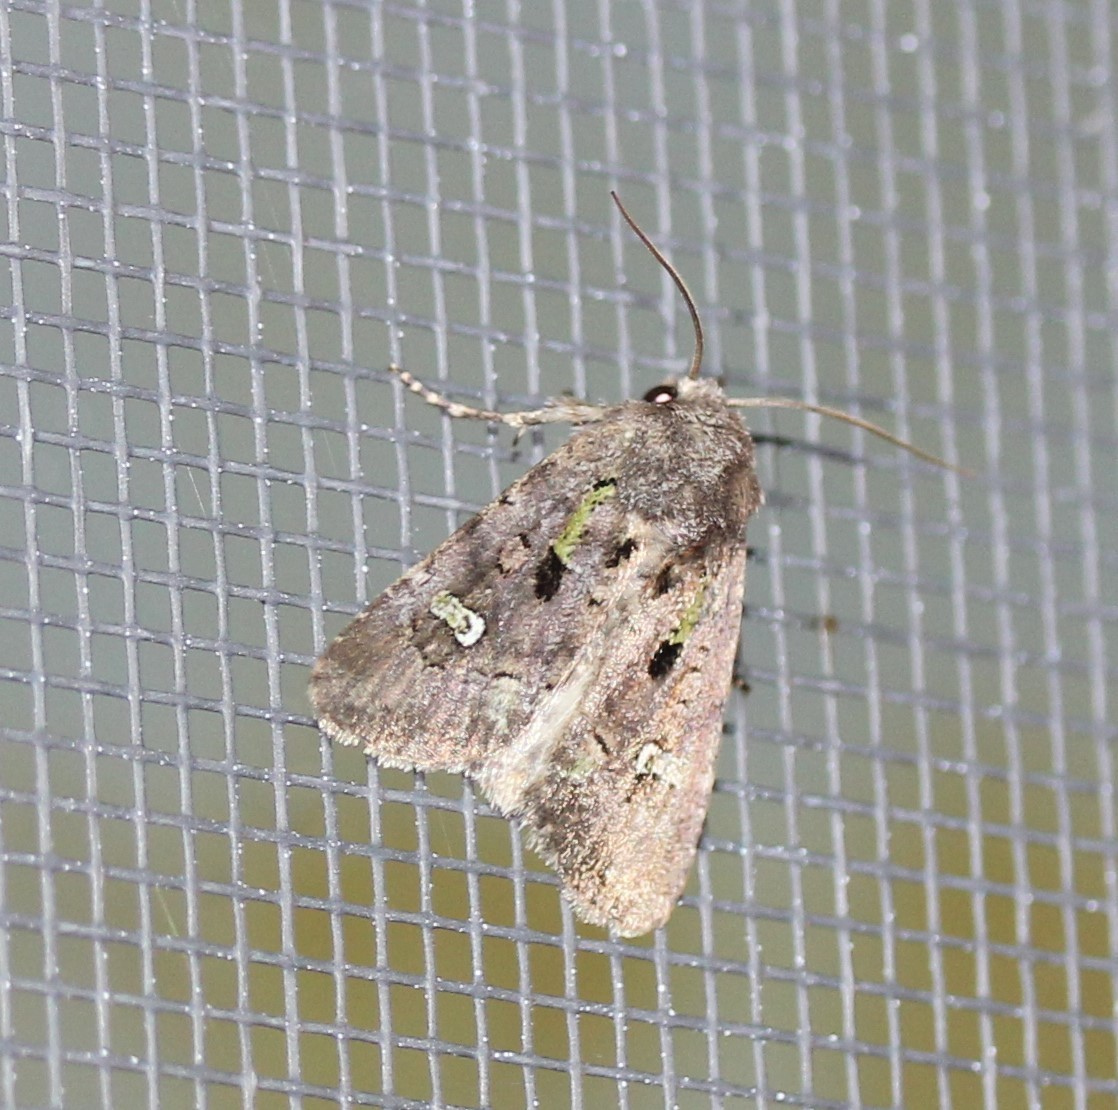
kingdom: Animalia
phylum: Arthropoda
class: Insecta
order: Lepidoptera
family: Noctuidae
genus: Lacinipolia
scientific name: Lacinipolia renigera
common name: Kidney-spotted minor
